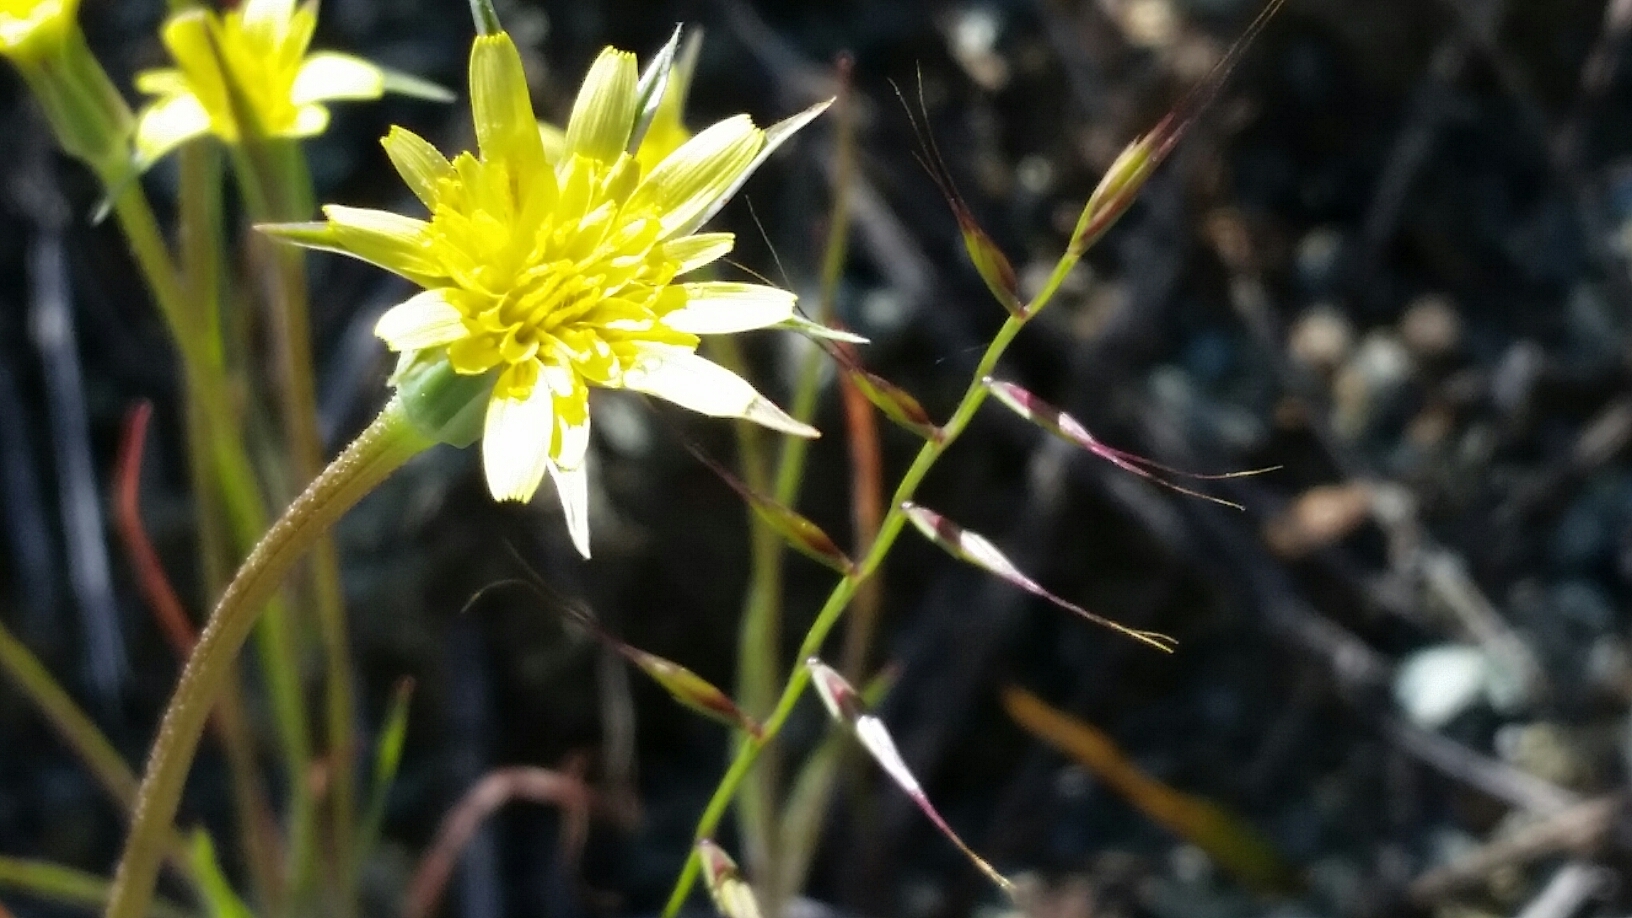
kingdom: Plantae
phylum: Tracheophyta
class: Magnoliopsida
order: Asterales
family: Asteraceae
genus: Tragopogon
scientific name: Tragopogon dubius
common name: Yellow salsify
